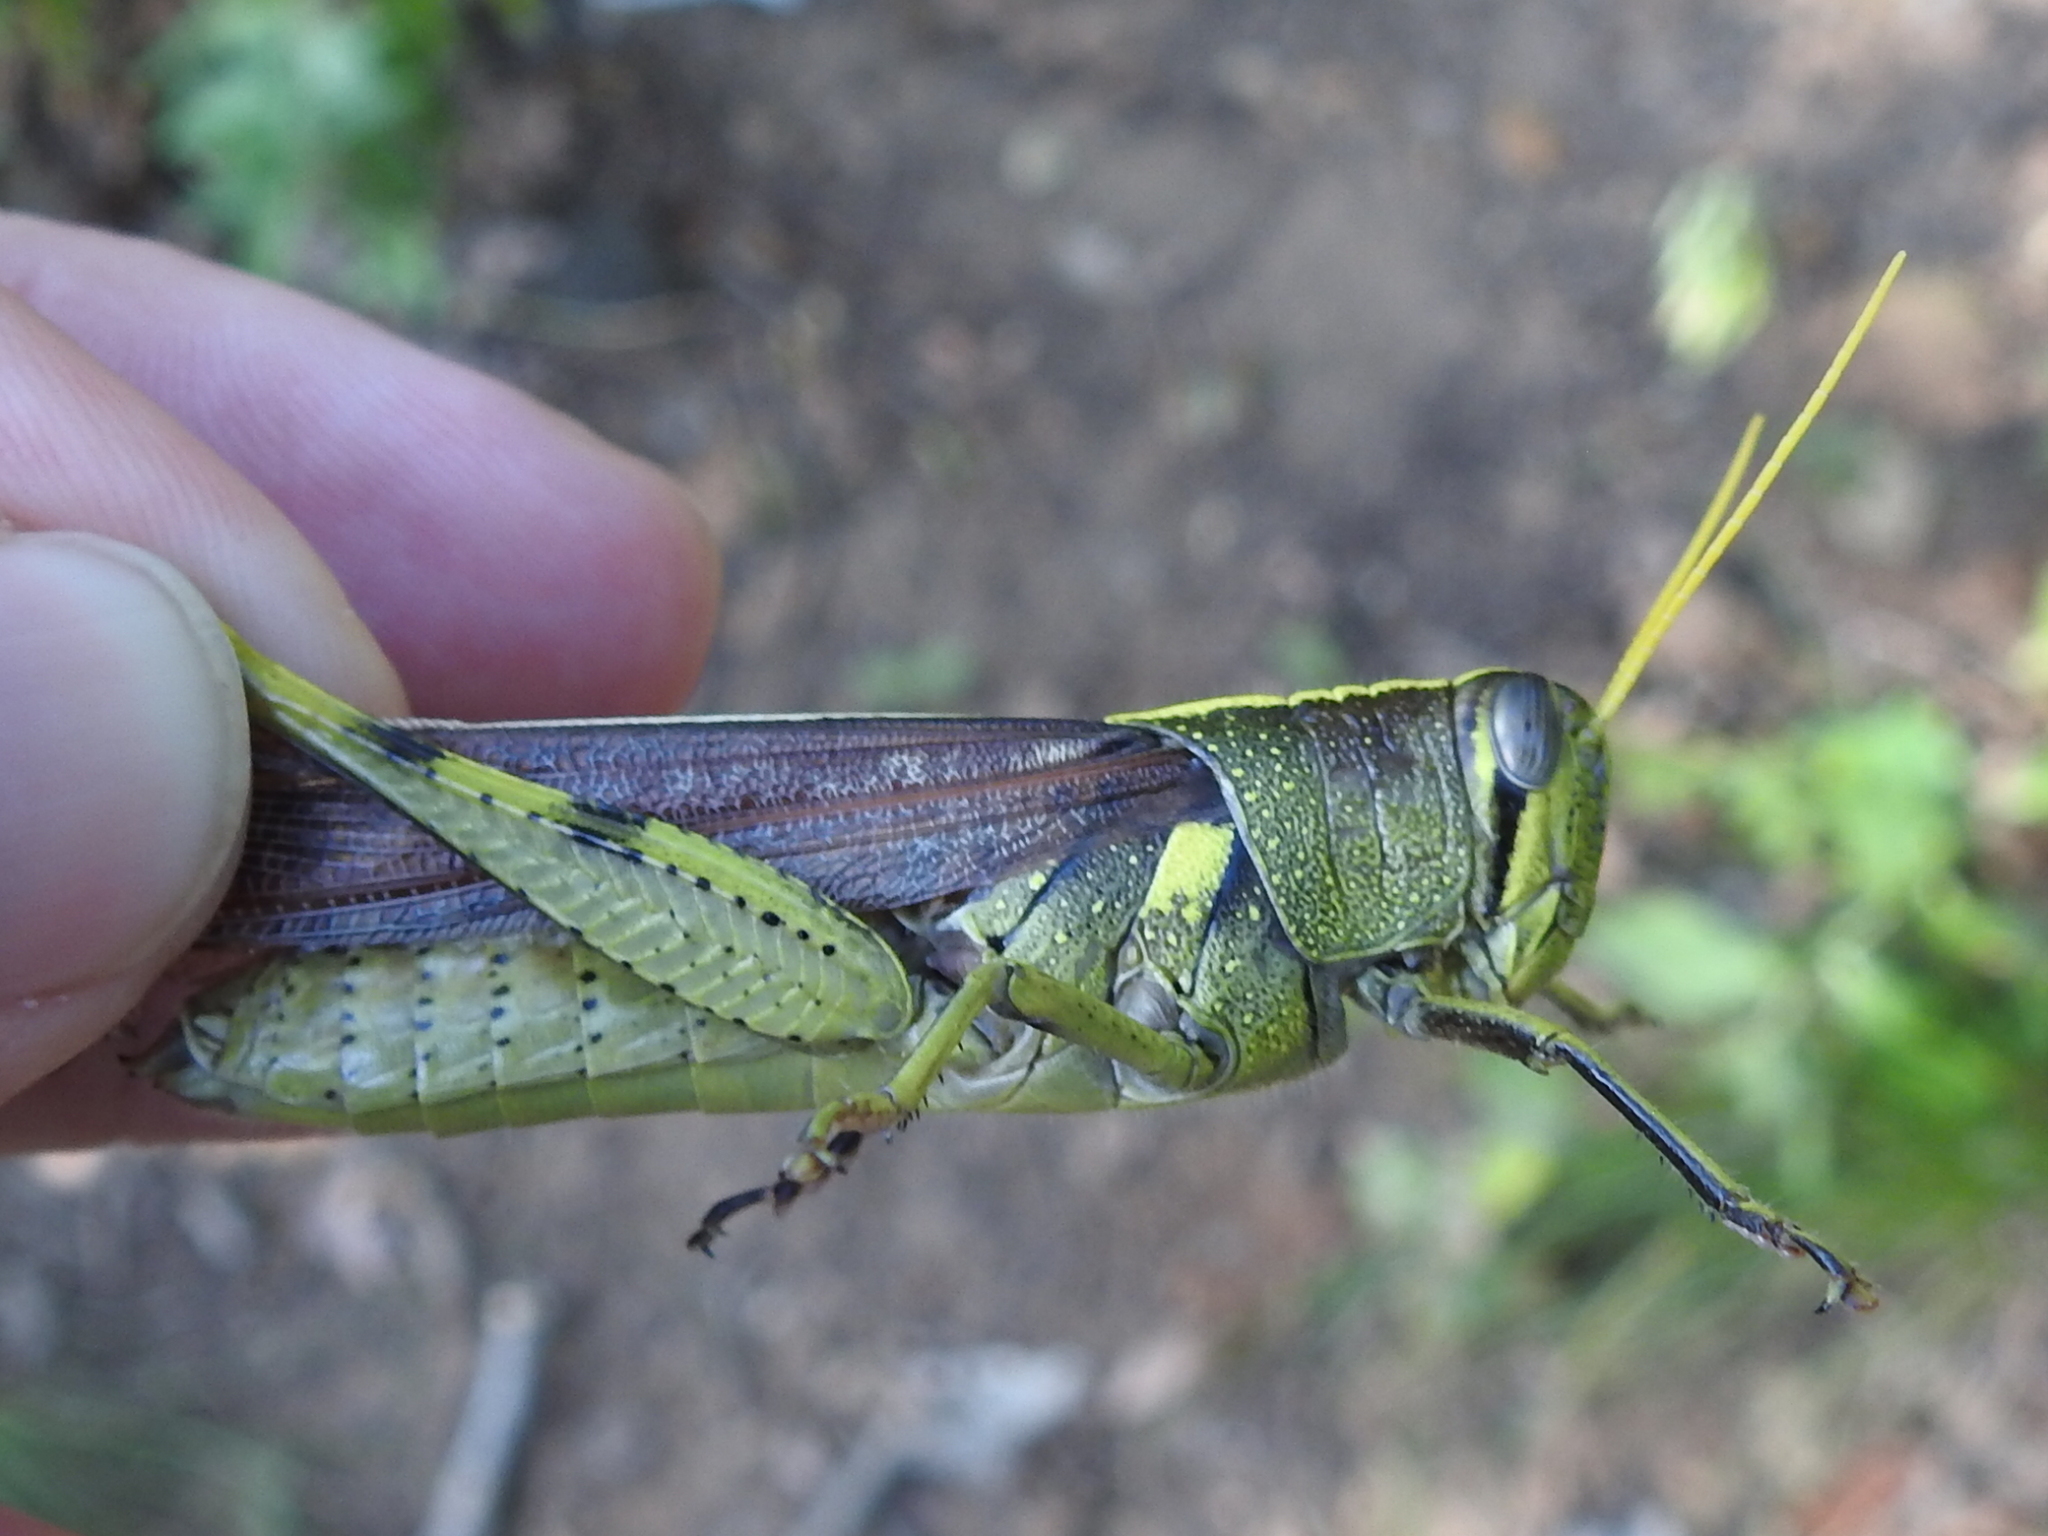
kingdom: Animalia
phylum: Arthropoda
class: Insecta
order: Orthoptera
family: Acrididae
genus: Schistocerca
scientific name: Schistocerca obscura
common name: Obscure bird grasshopper
